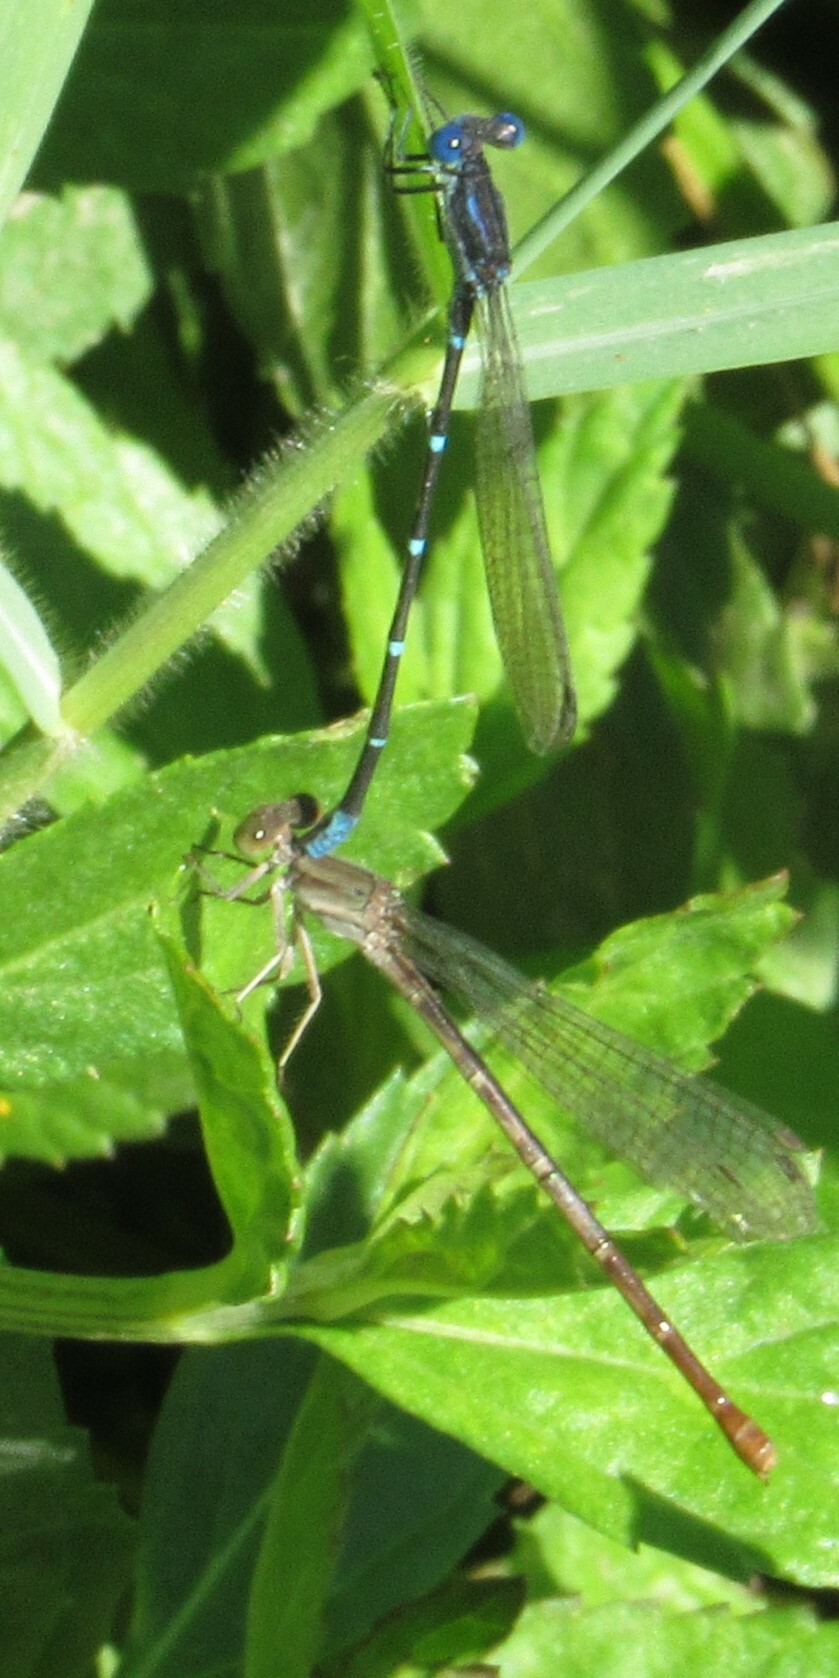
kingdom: Animalia
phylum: Arthropoda
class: Insecta
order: Odonata
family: Coenagrionidae
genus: Argia
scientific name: Argia sedula
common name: Blue-ringed dancer
